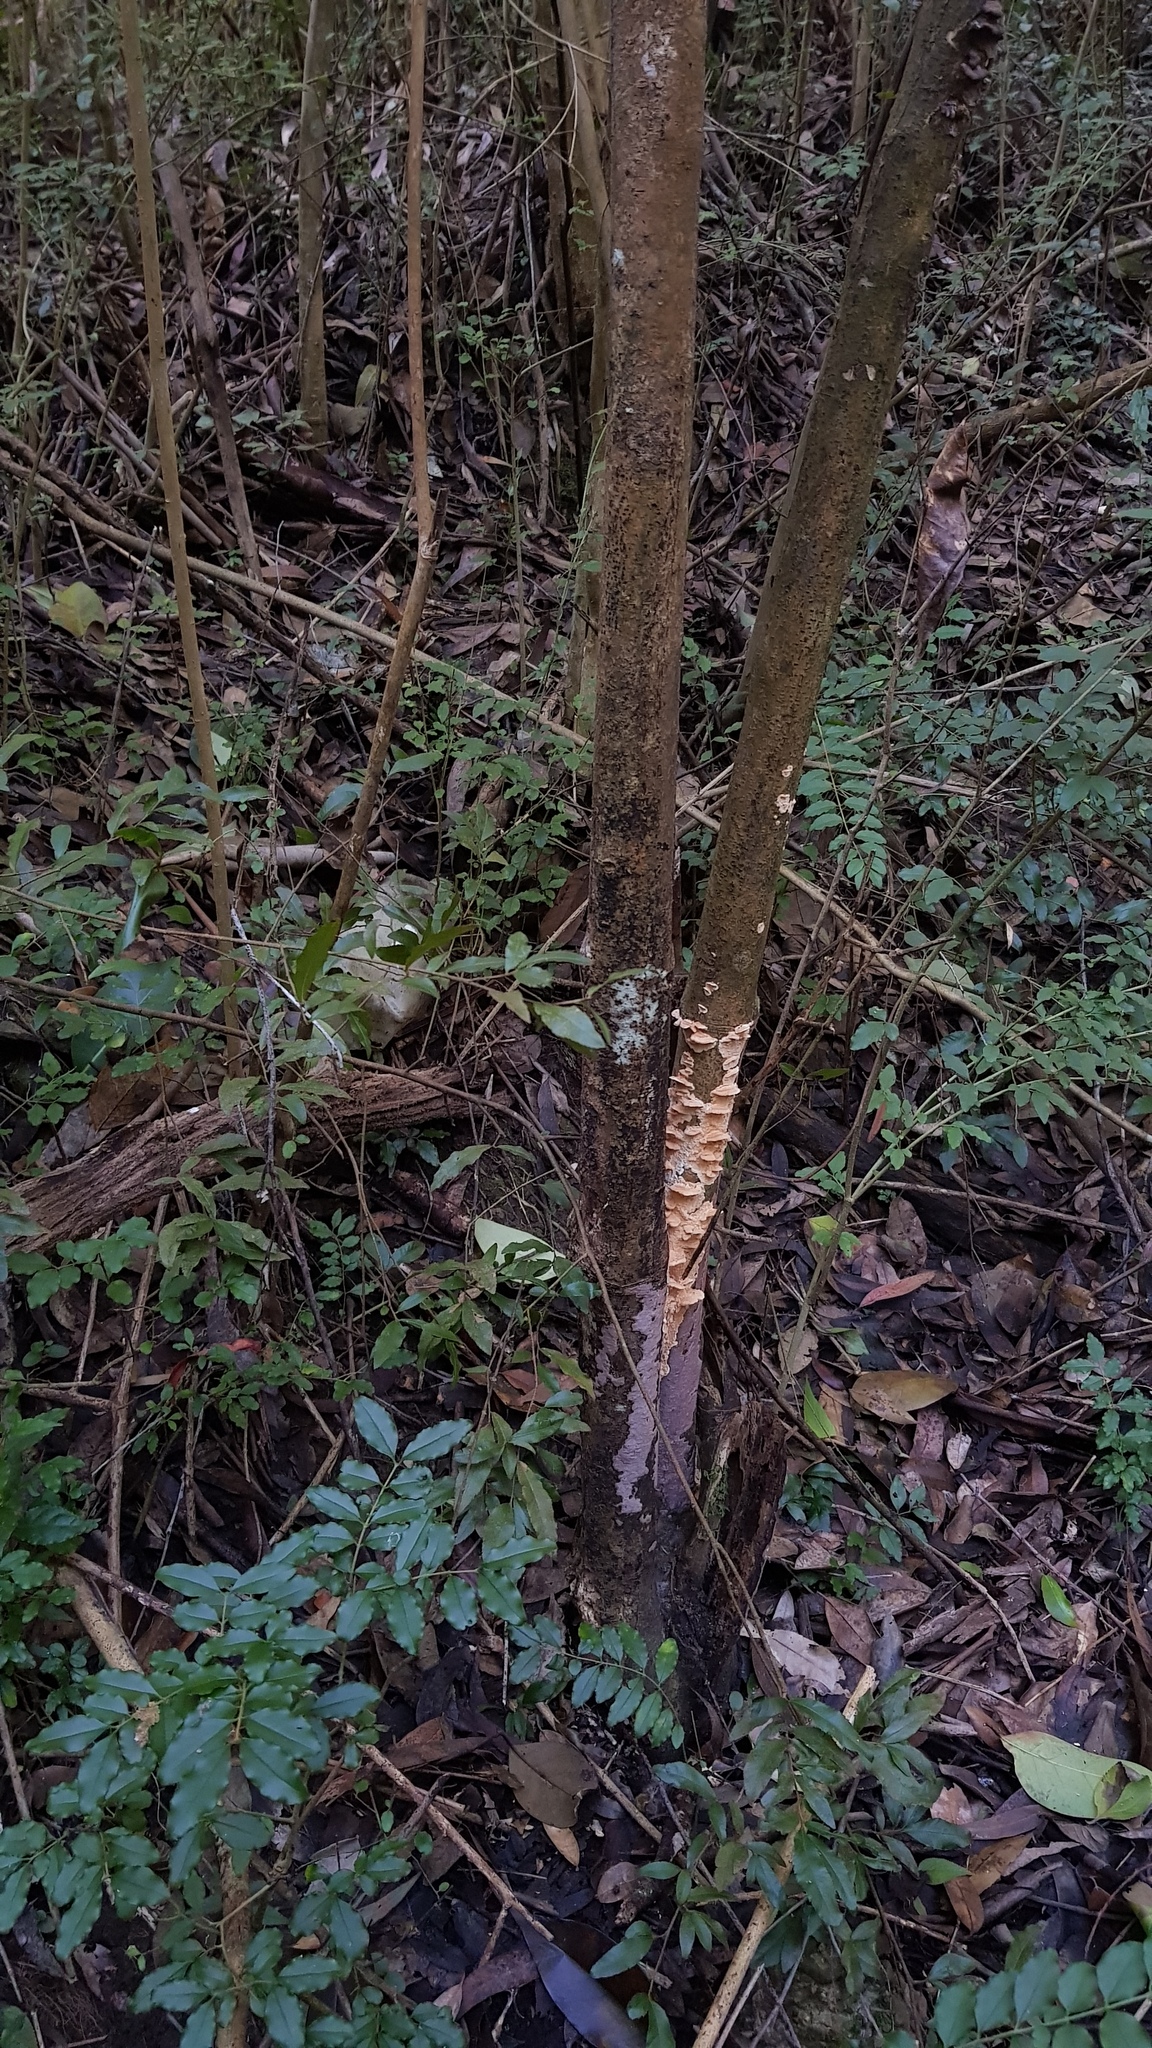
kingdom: Fungi
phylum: Basidiomycota
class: Agaricomycetes
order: Polyporales
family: Cerrenaceae
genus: Cerrena
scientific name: Cerrena zonata
